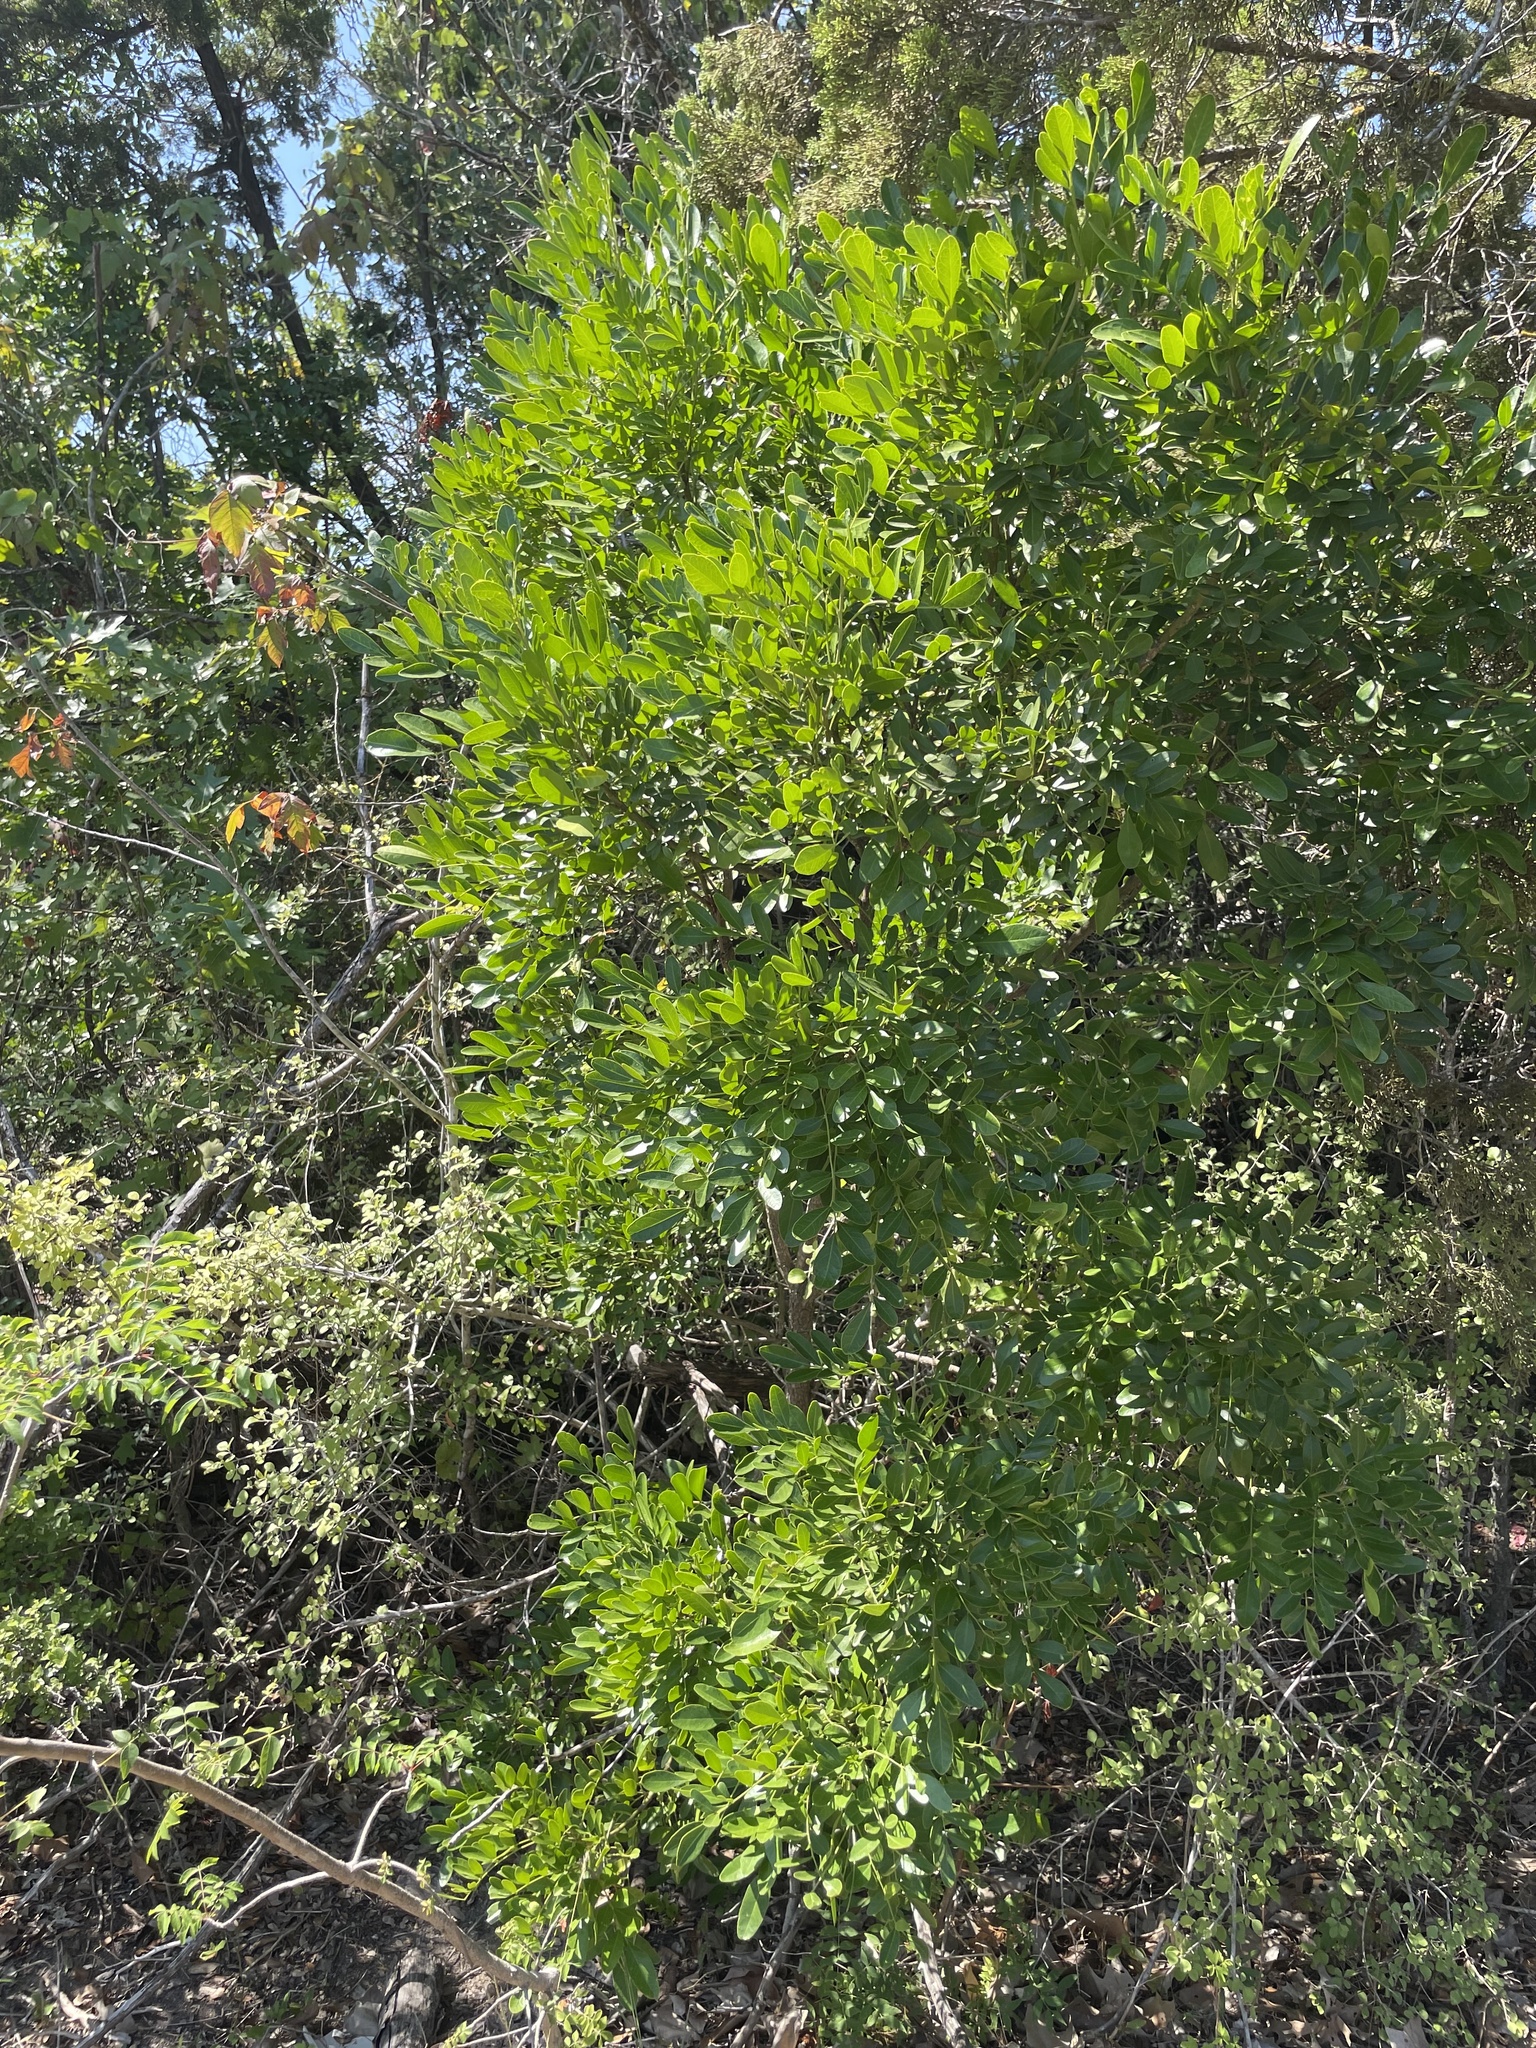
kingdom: Plantae
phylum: Tracheophyta
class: Magnoliopsida
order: Fabales
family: Fabaceae
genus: Dermatophyllum
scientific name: Dermatophyllum secundiflorum
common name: Texas-mountain-laurel
